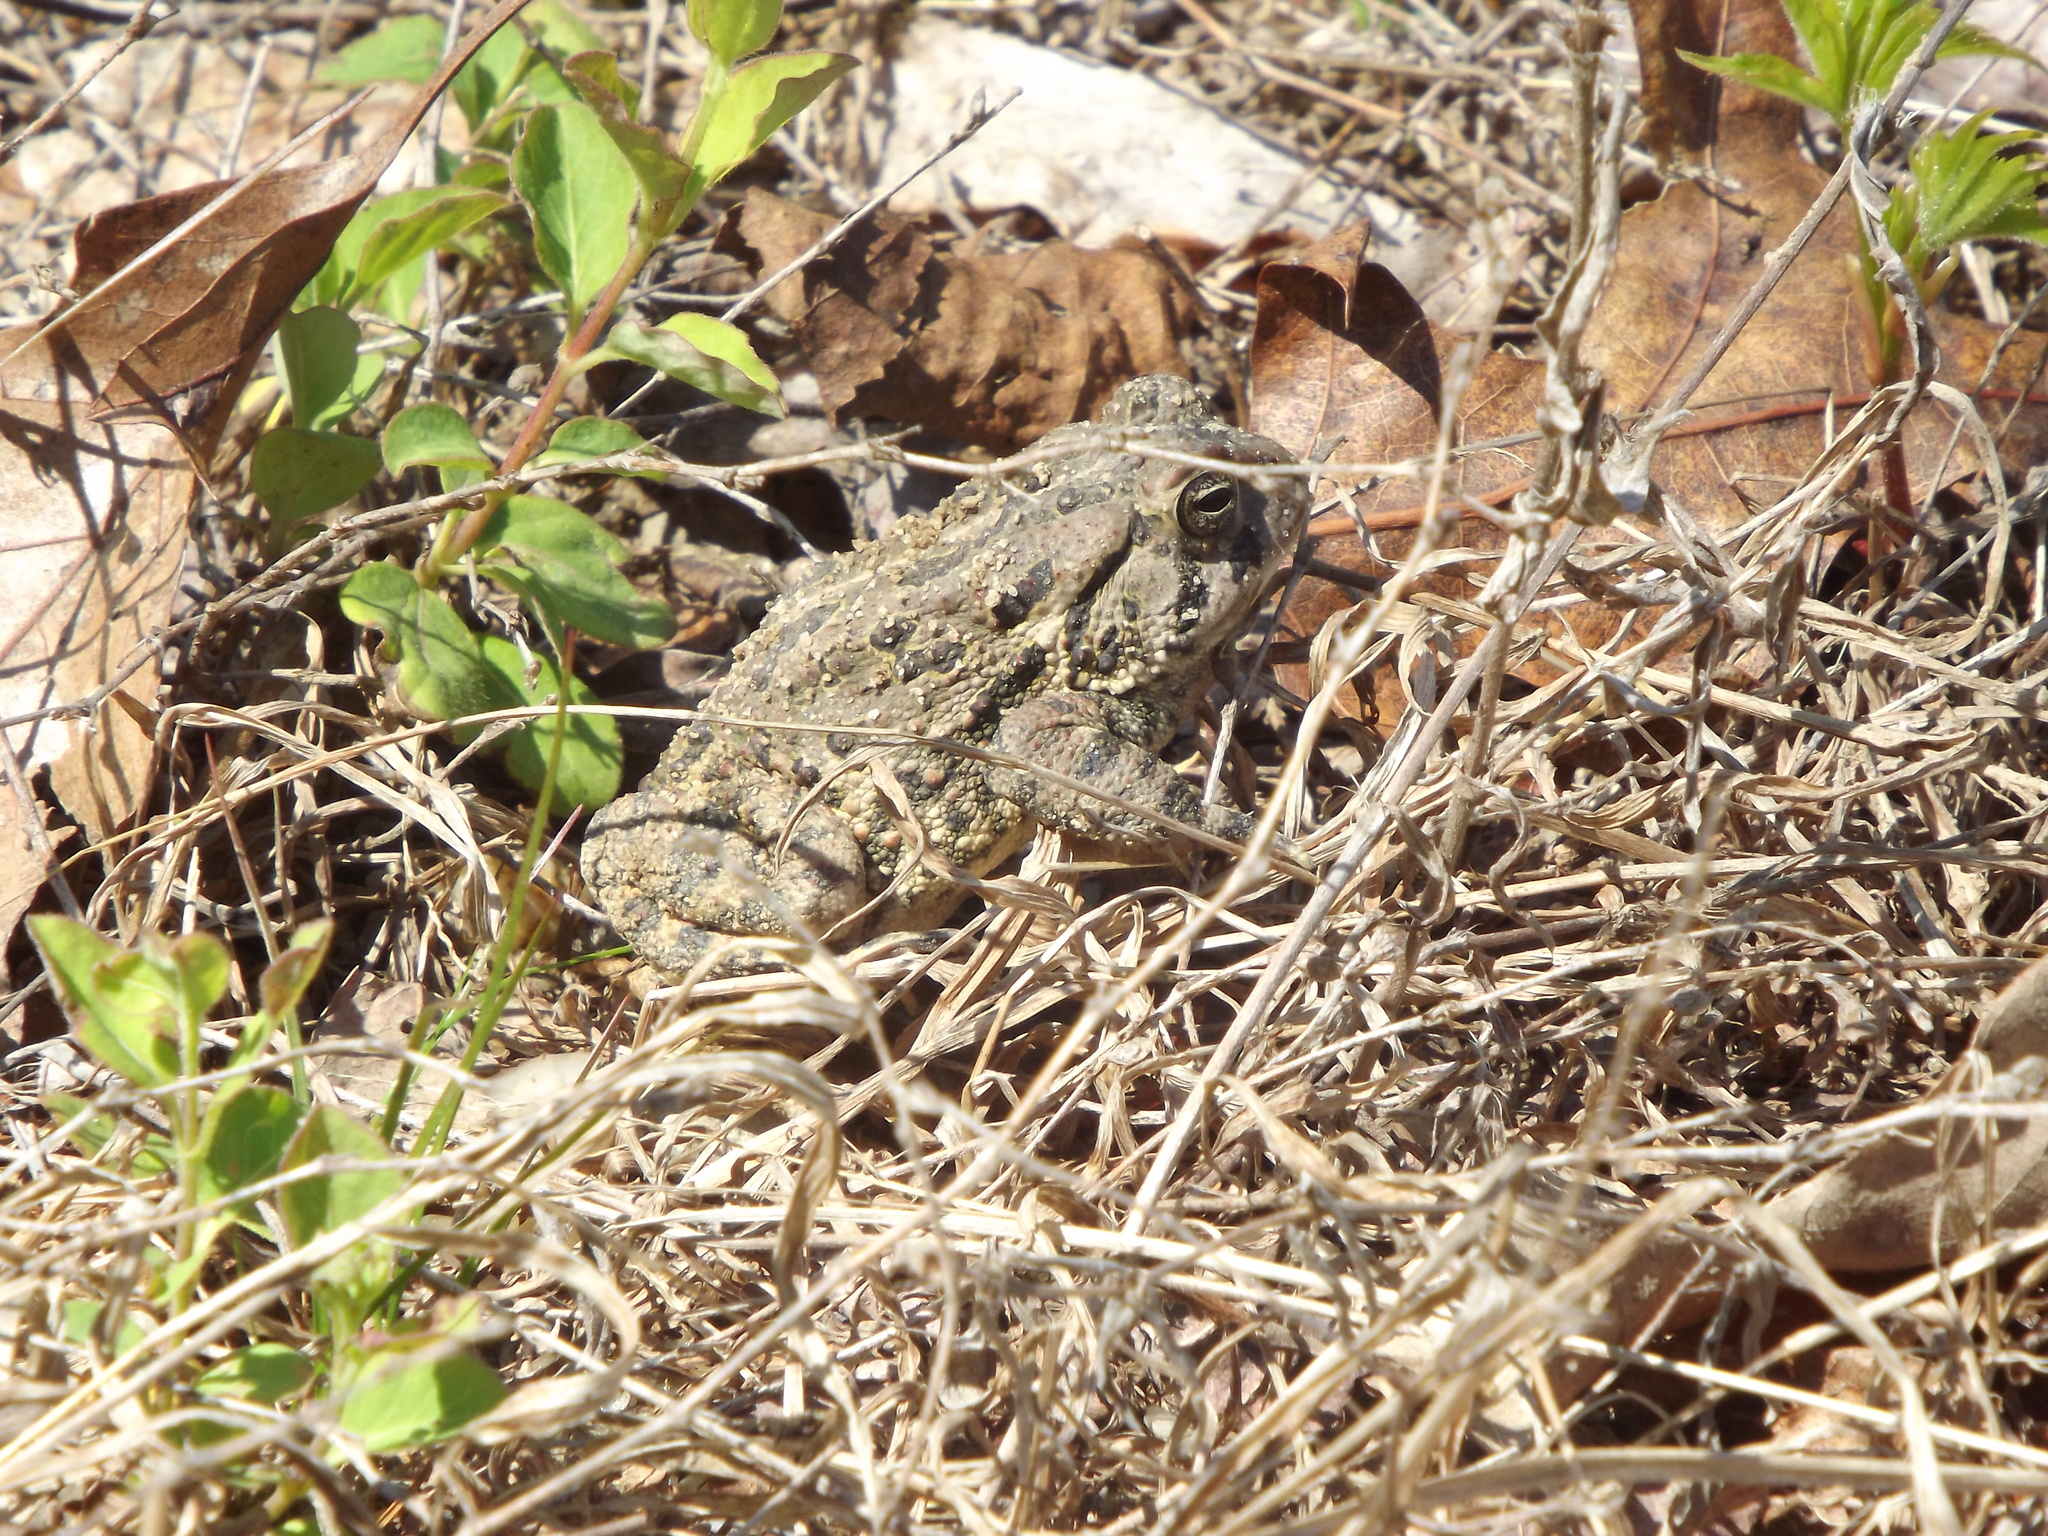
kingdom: Animalia
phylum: Chordata
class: Amphibia
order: Anura
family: Bufonidae
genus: Anaxyrus
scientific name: Anaxyrus fowleri
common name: Fowler's toad
